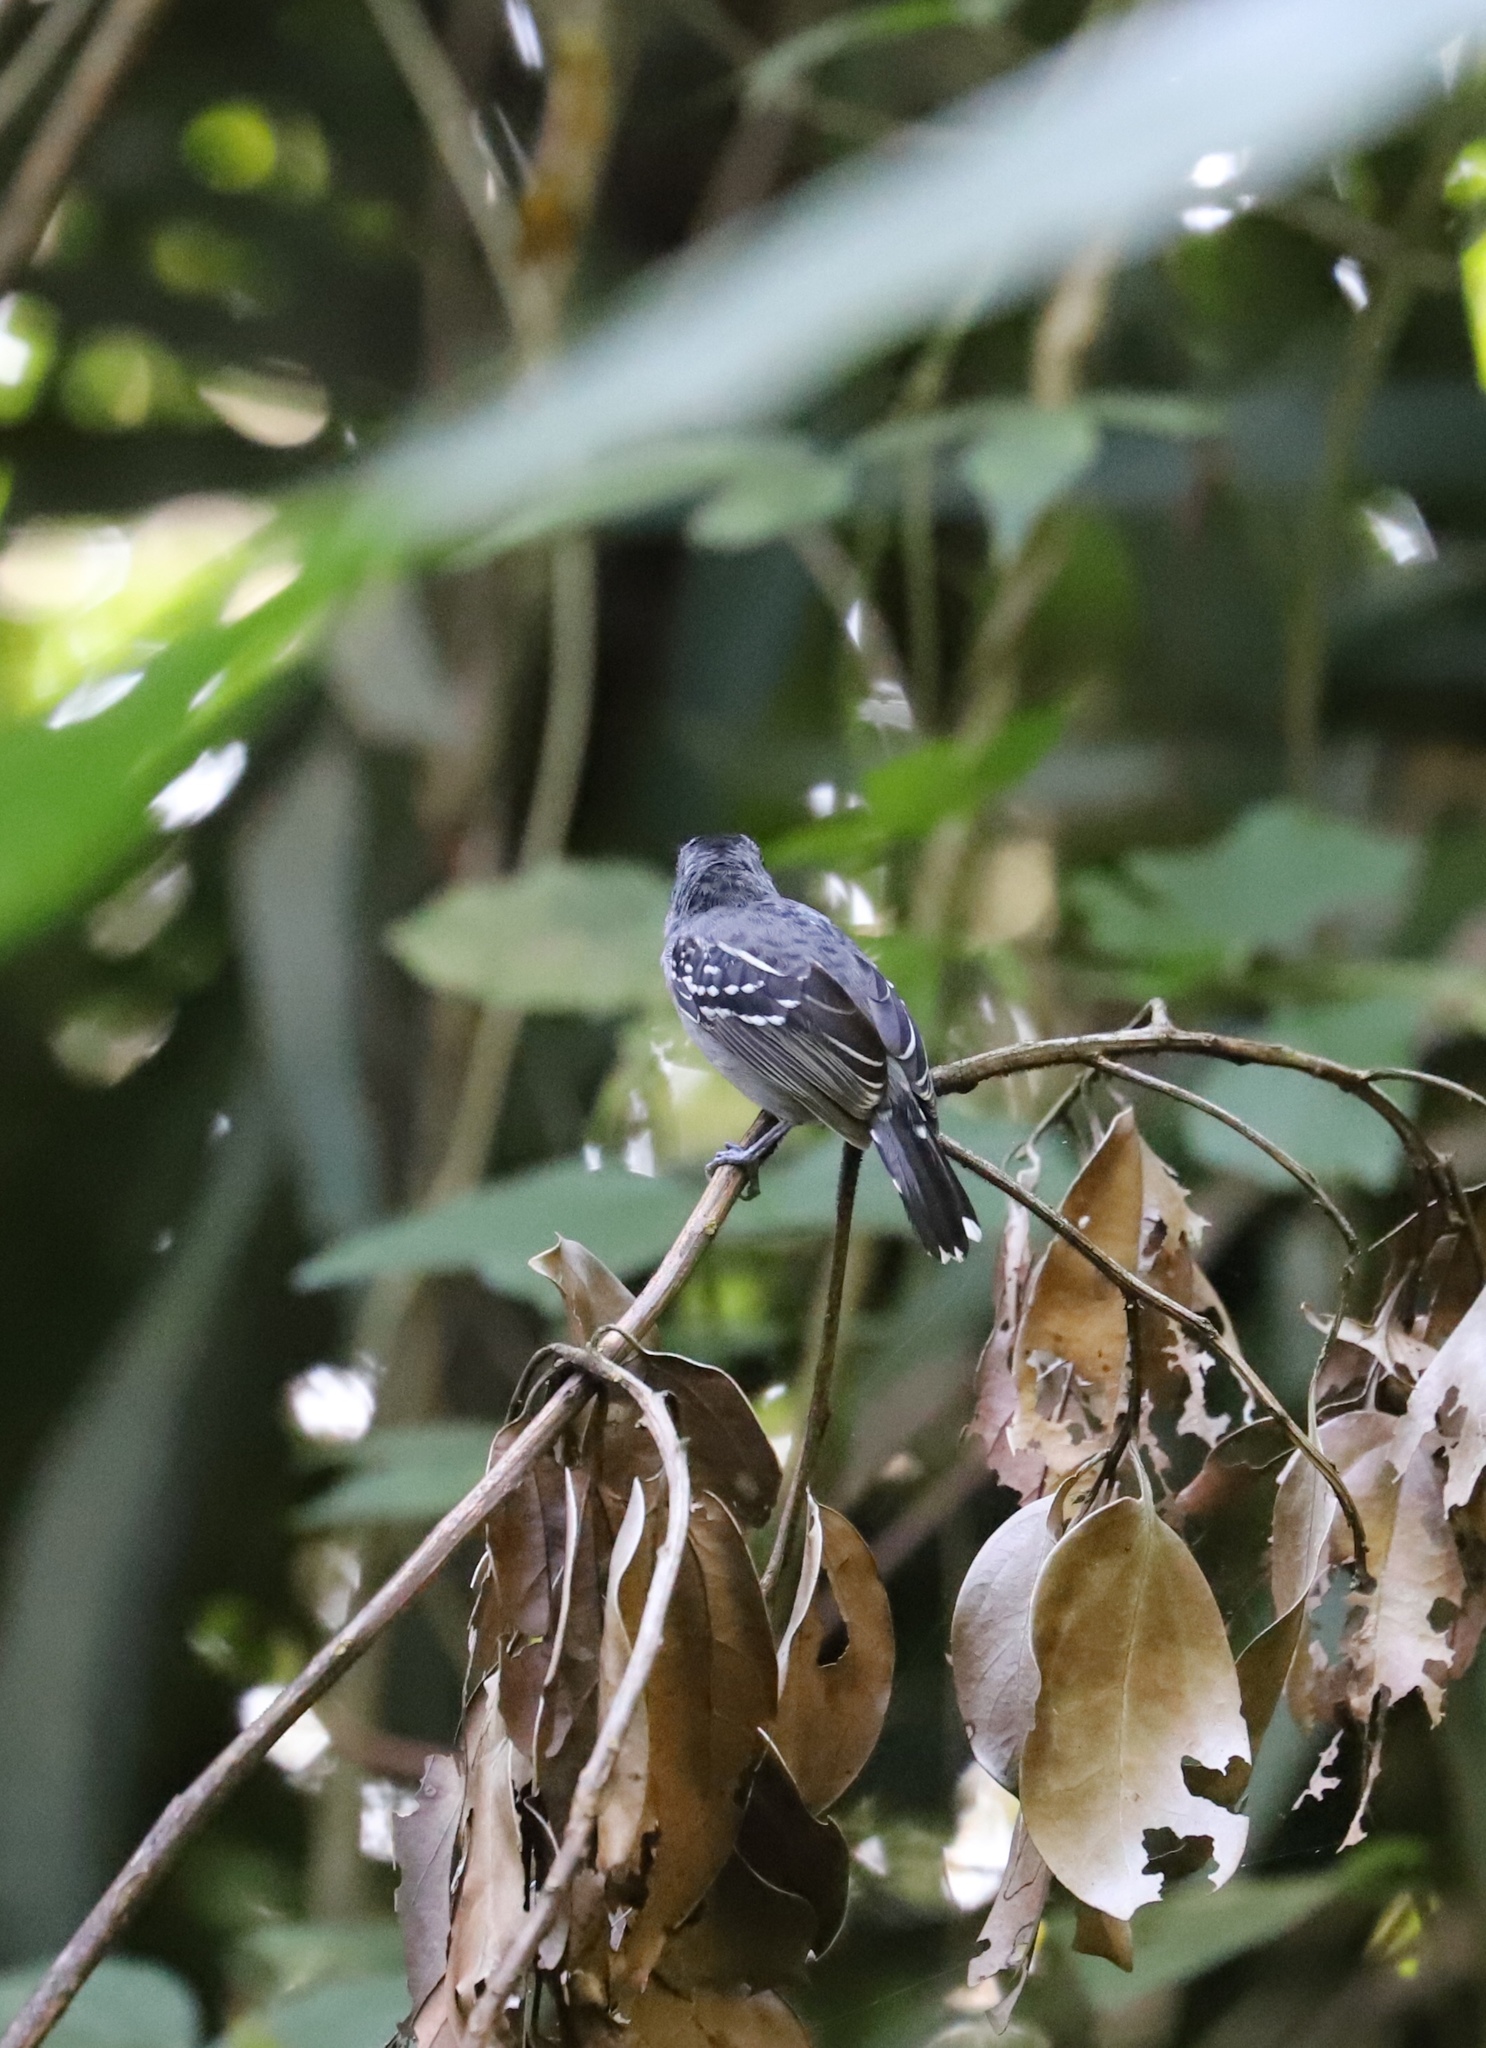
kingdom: Animalia
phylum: Chordata
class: Aves
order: Passeriformes
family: Thamnophilidae
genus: Thamnophilus
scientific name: Thamnophilus atrinucha
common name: Black-crowned antshrike
